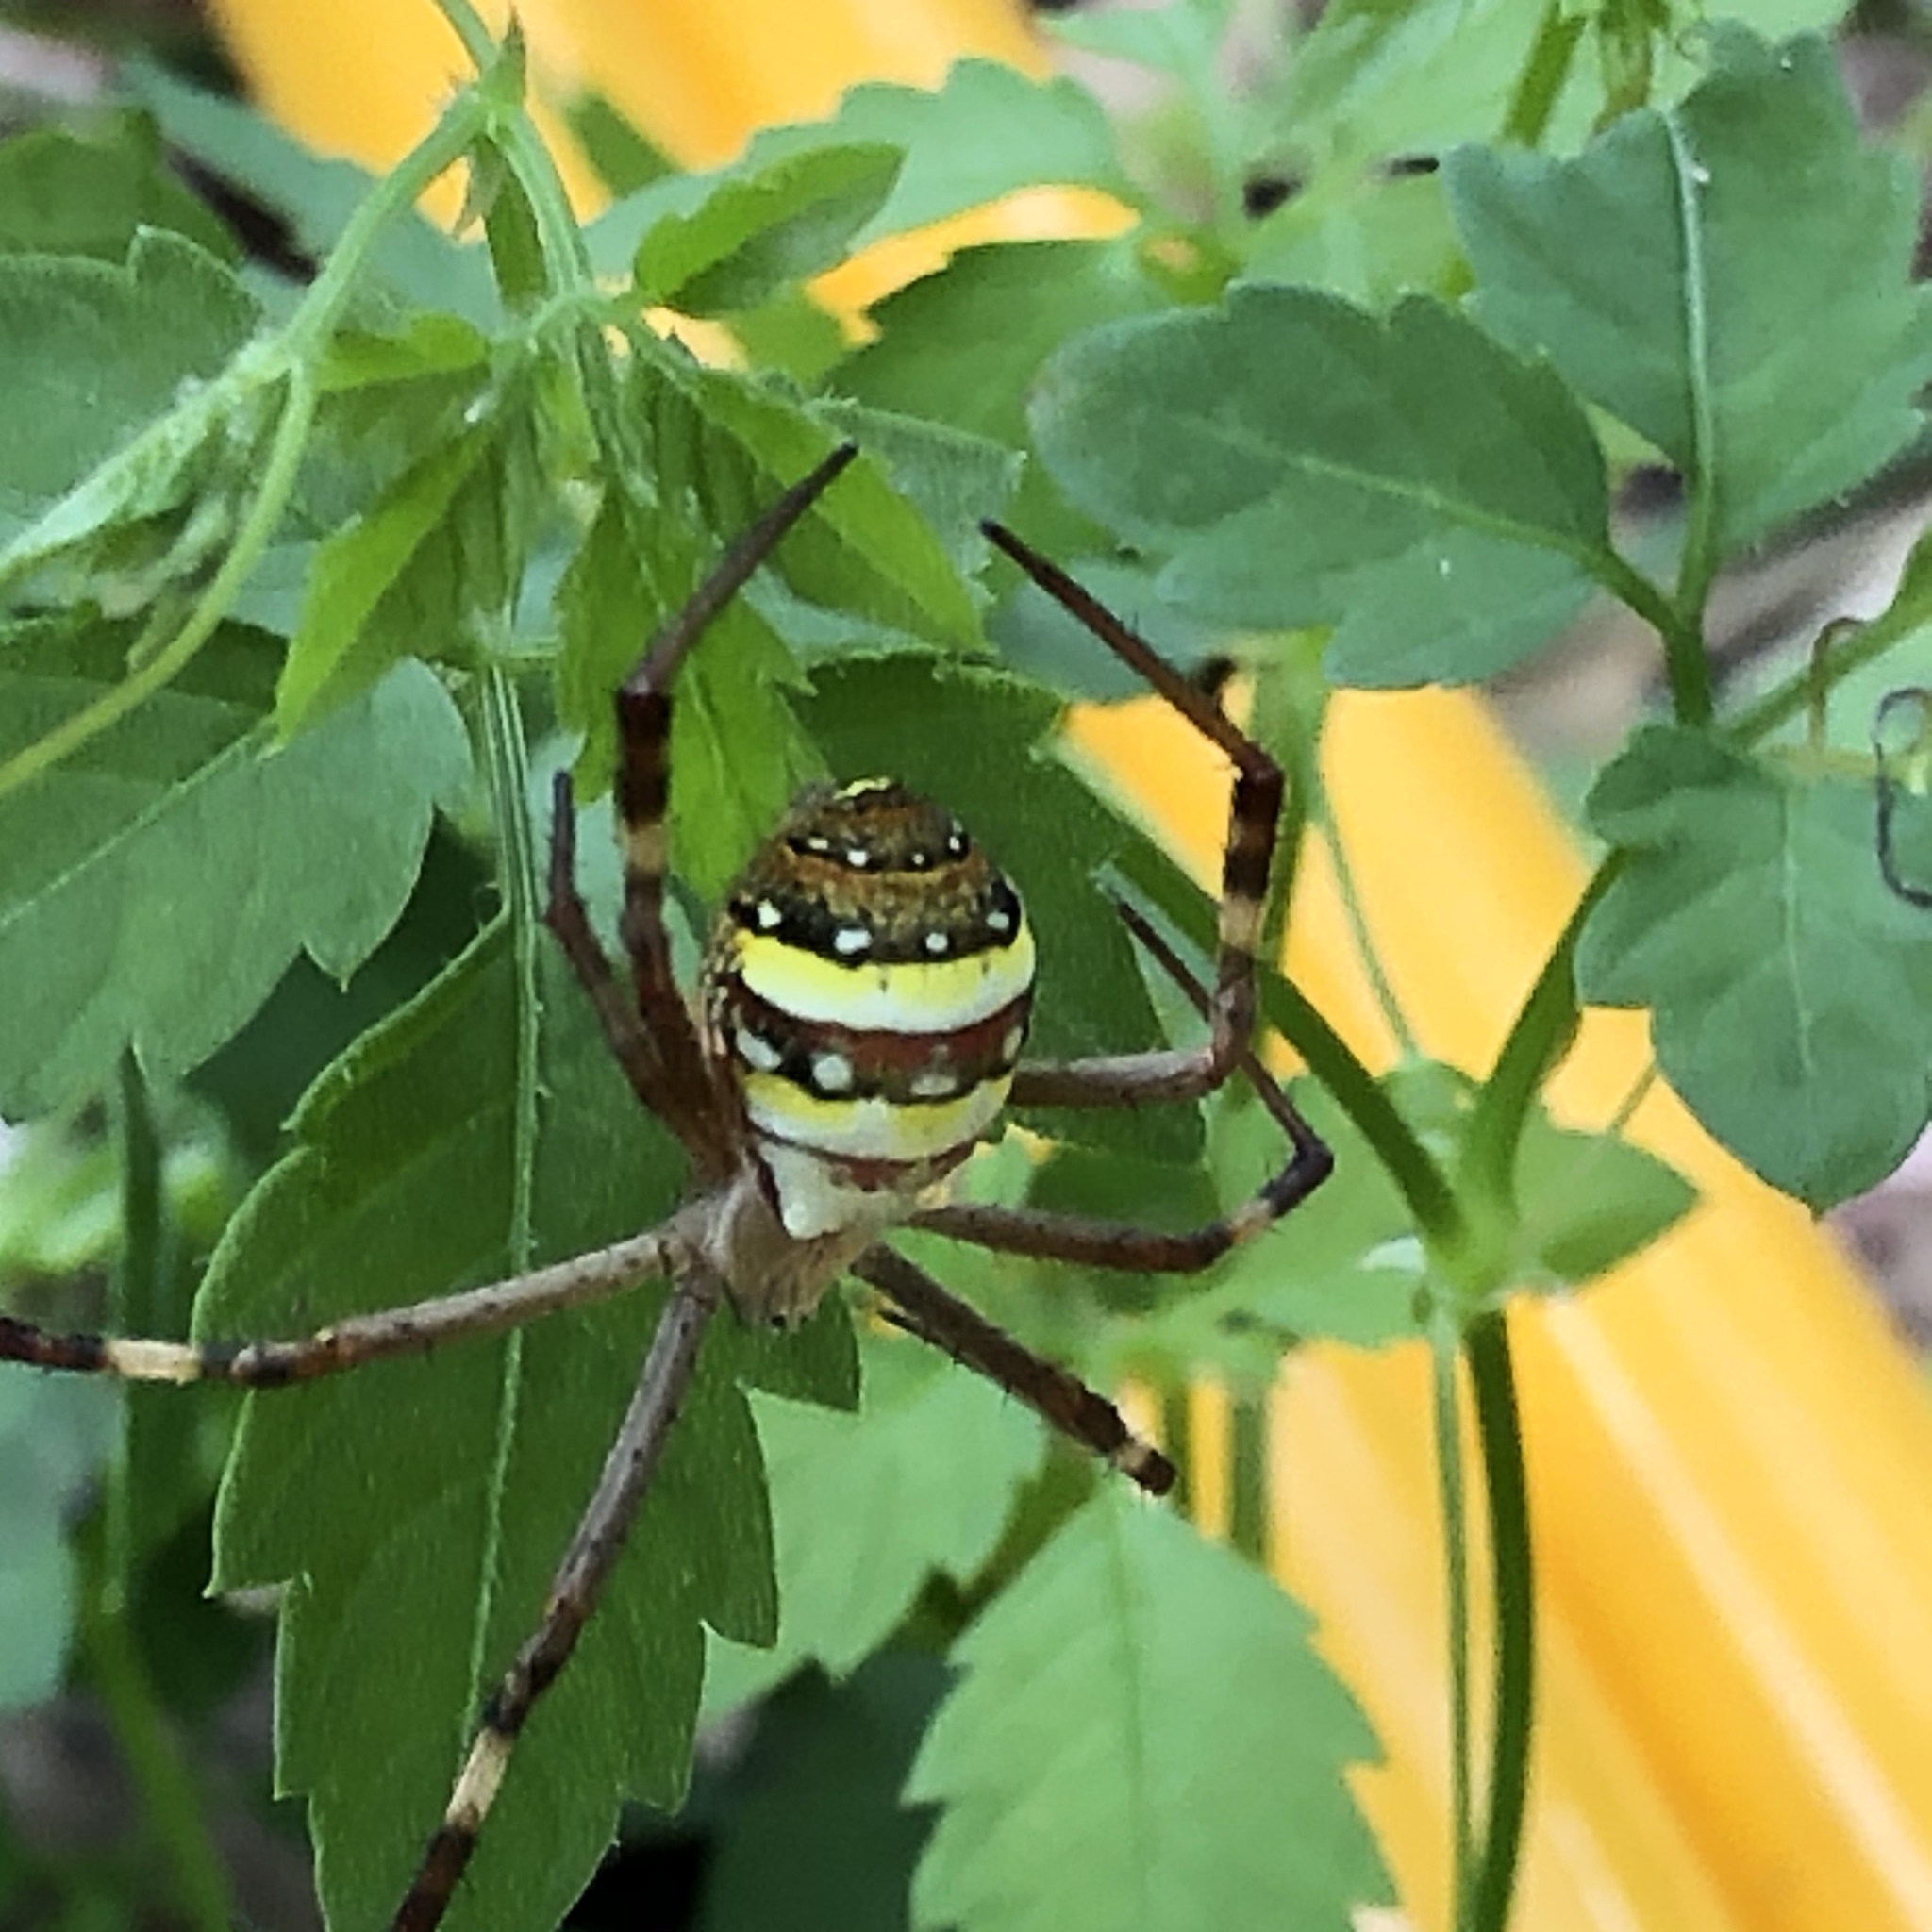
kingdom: Animalia
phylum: Arthropoda
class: Arachnida
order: Araneae
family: Araneidae
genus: Argiope
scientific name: Argiope keyserlingi
